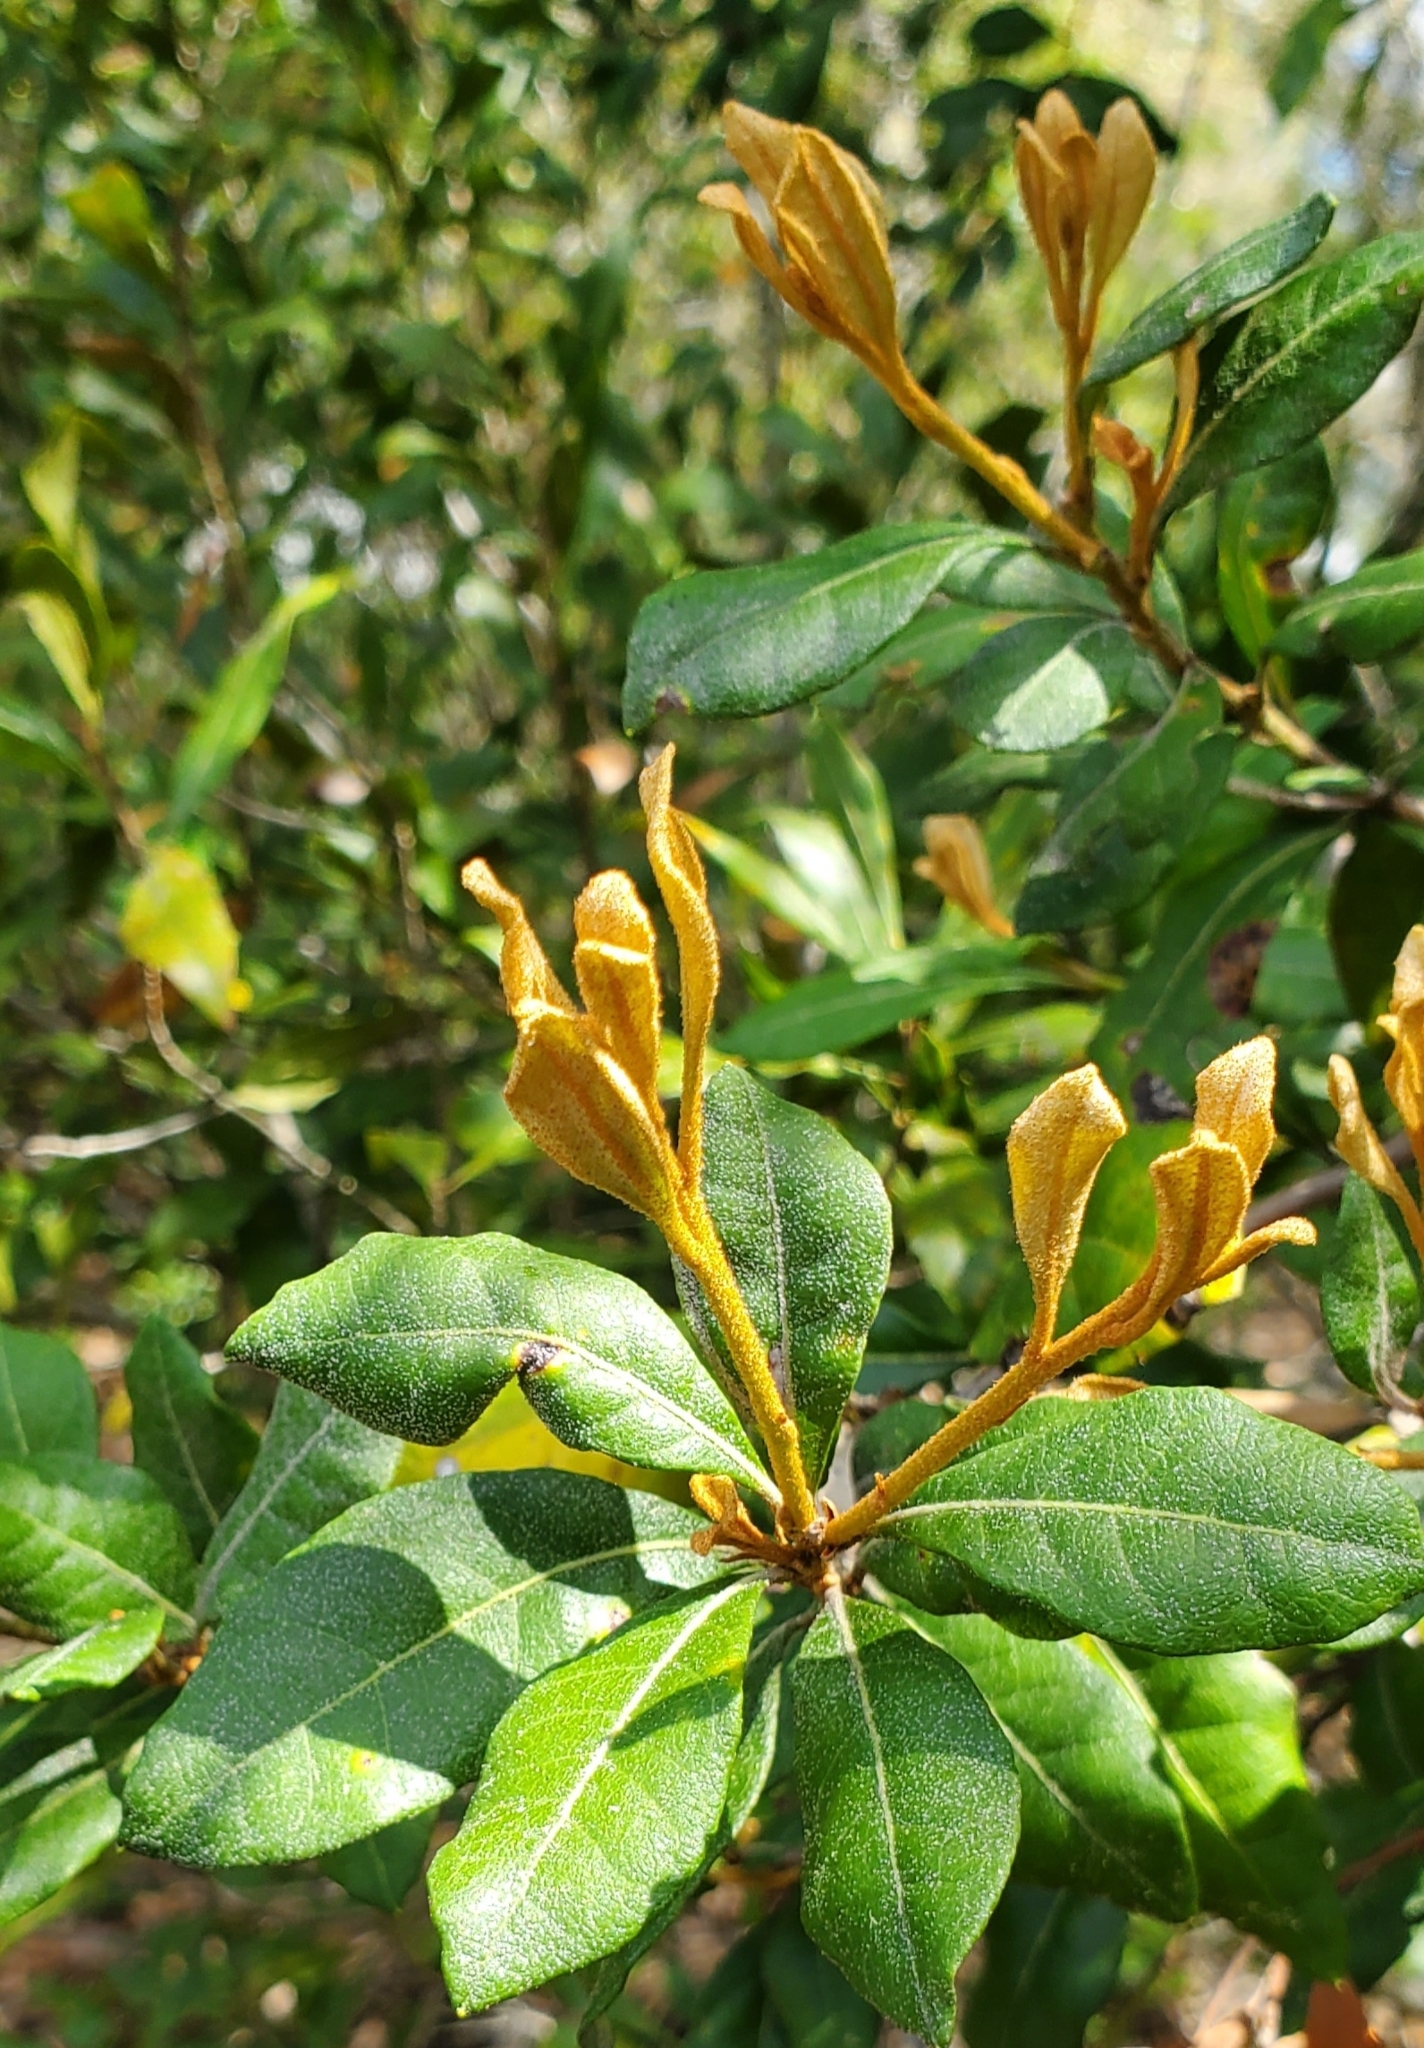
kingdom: Plantae
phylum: Tracheophyta
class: Magnoliopsida
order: Ericales
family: Ericaceae
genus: Lyonia
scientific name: Lyonia ferruginea
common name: Rusty lyonia
